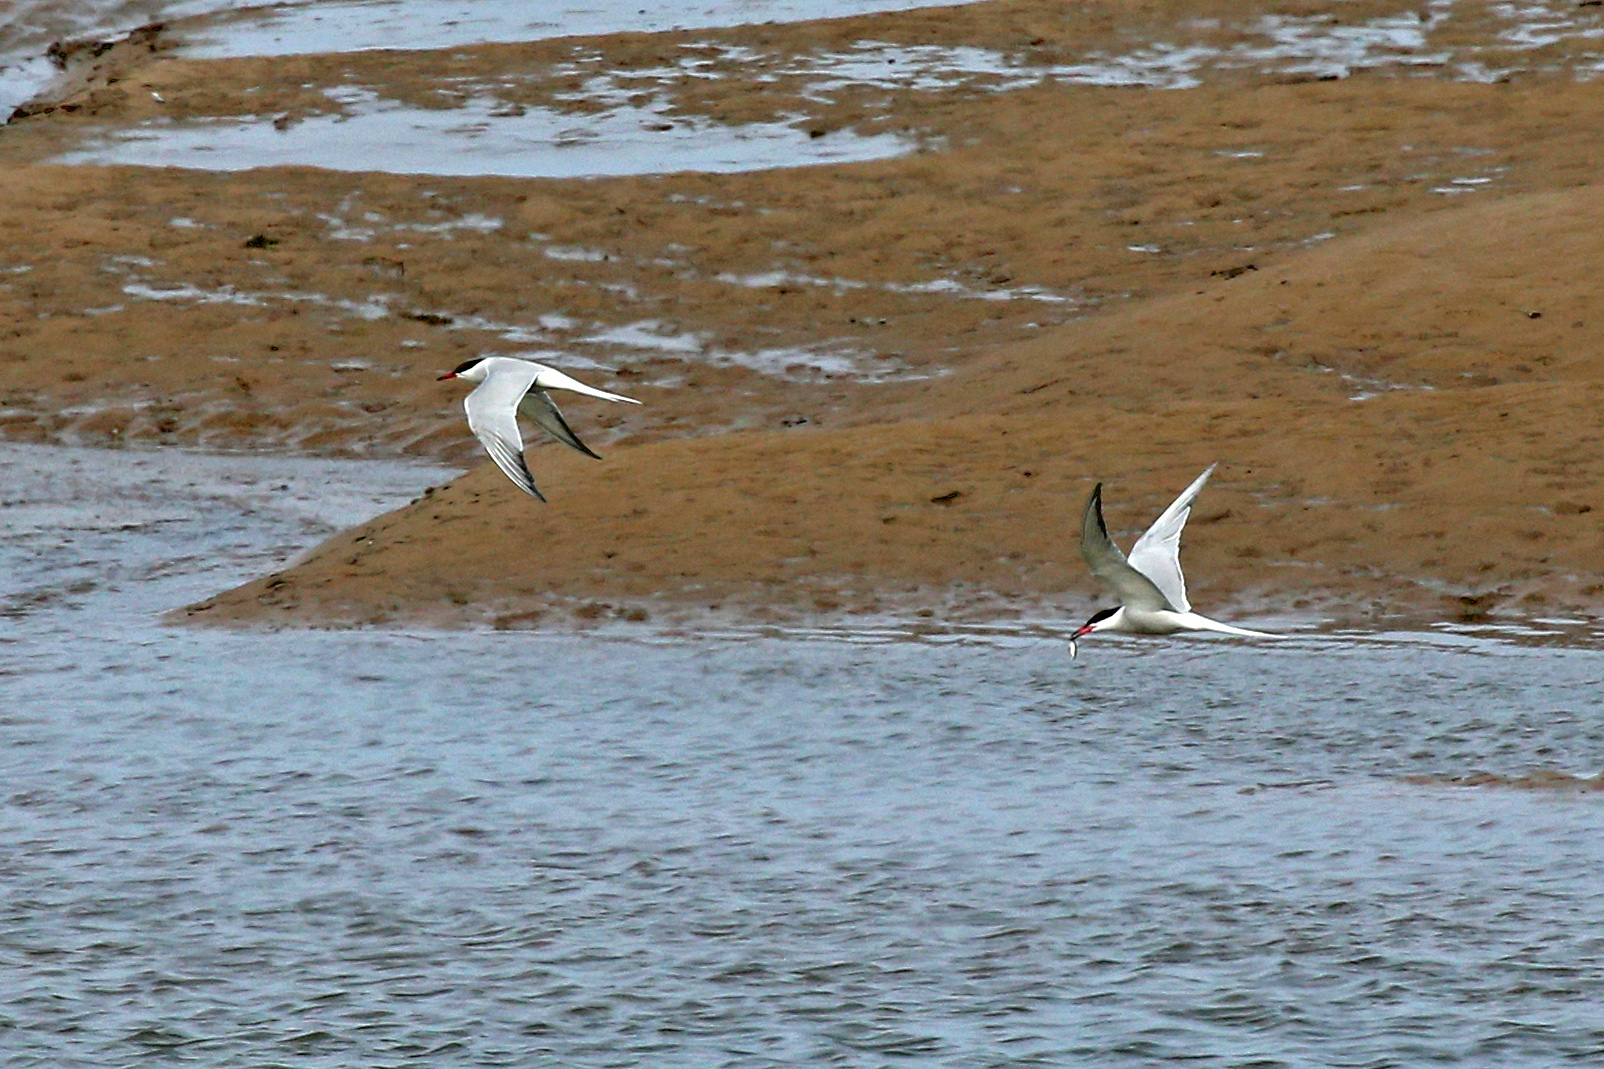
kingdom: Animalia
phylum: Chordata
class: Aves
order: Charadriiformes
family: Laridae
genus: Sterna
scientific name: Sterna hirundo
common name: Common tern
